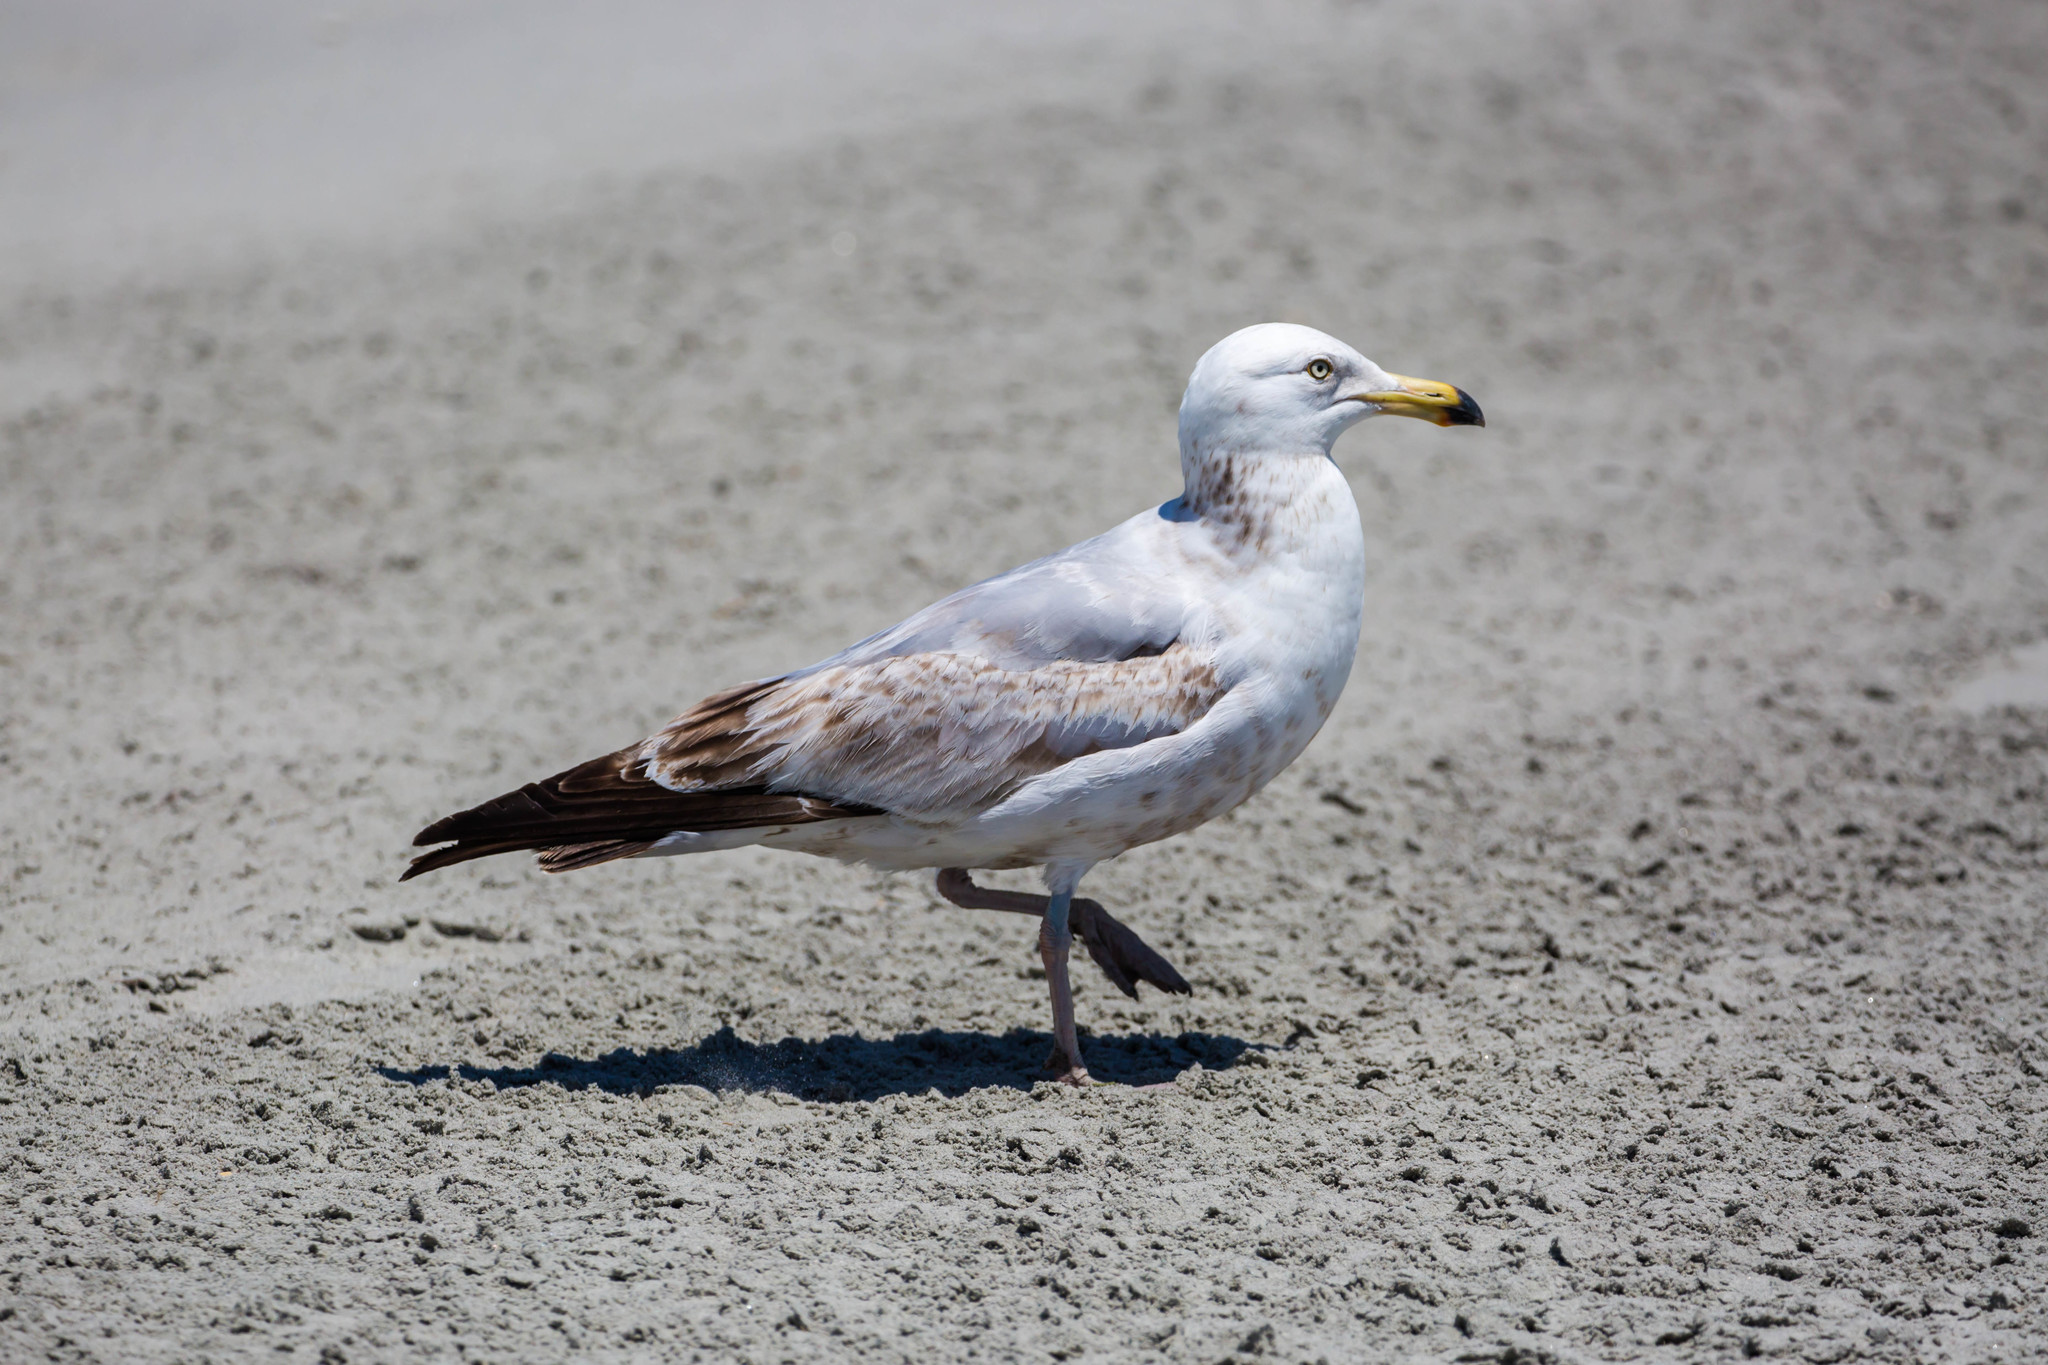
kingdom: Animalia
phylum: Chordata
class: Aves
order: Charadriiformes
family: Laridae
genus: Larus
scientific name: Larus argentatus
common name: Herring gull
